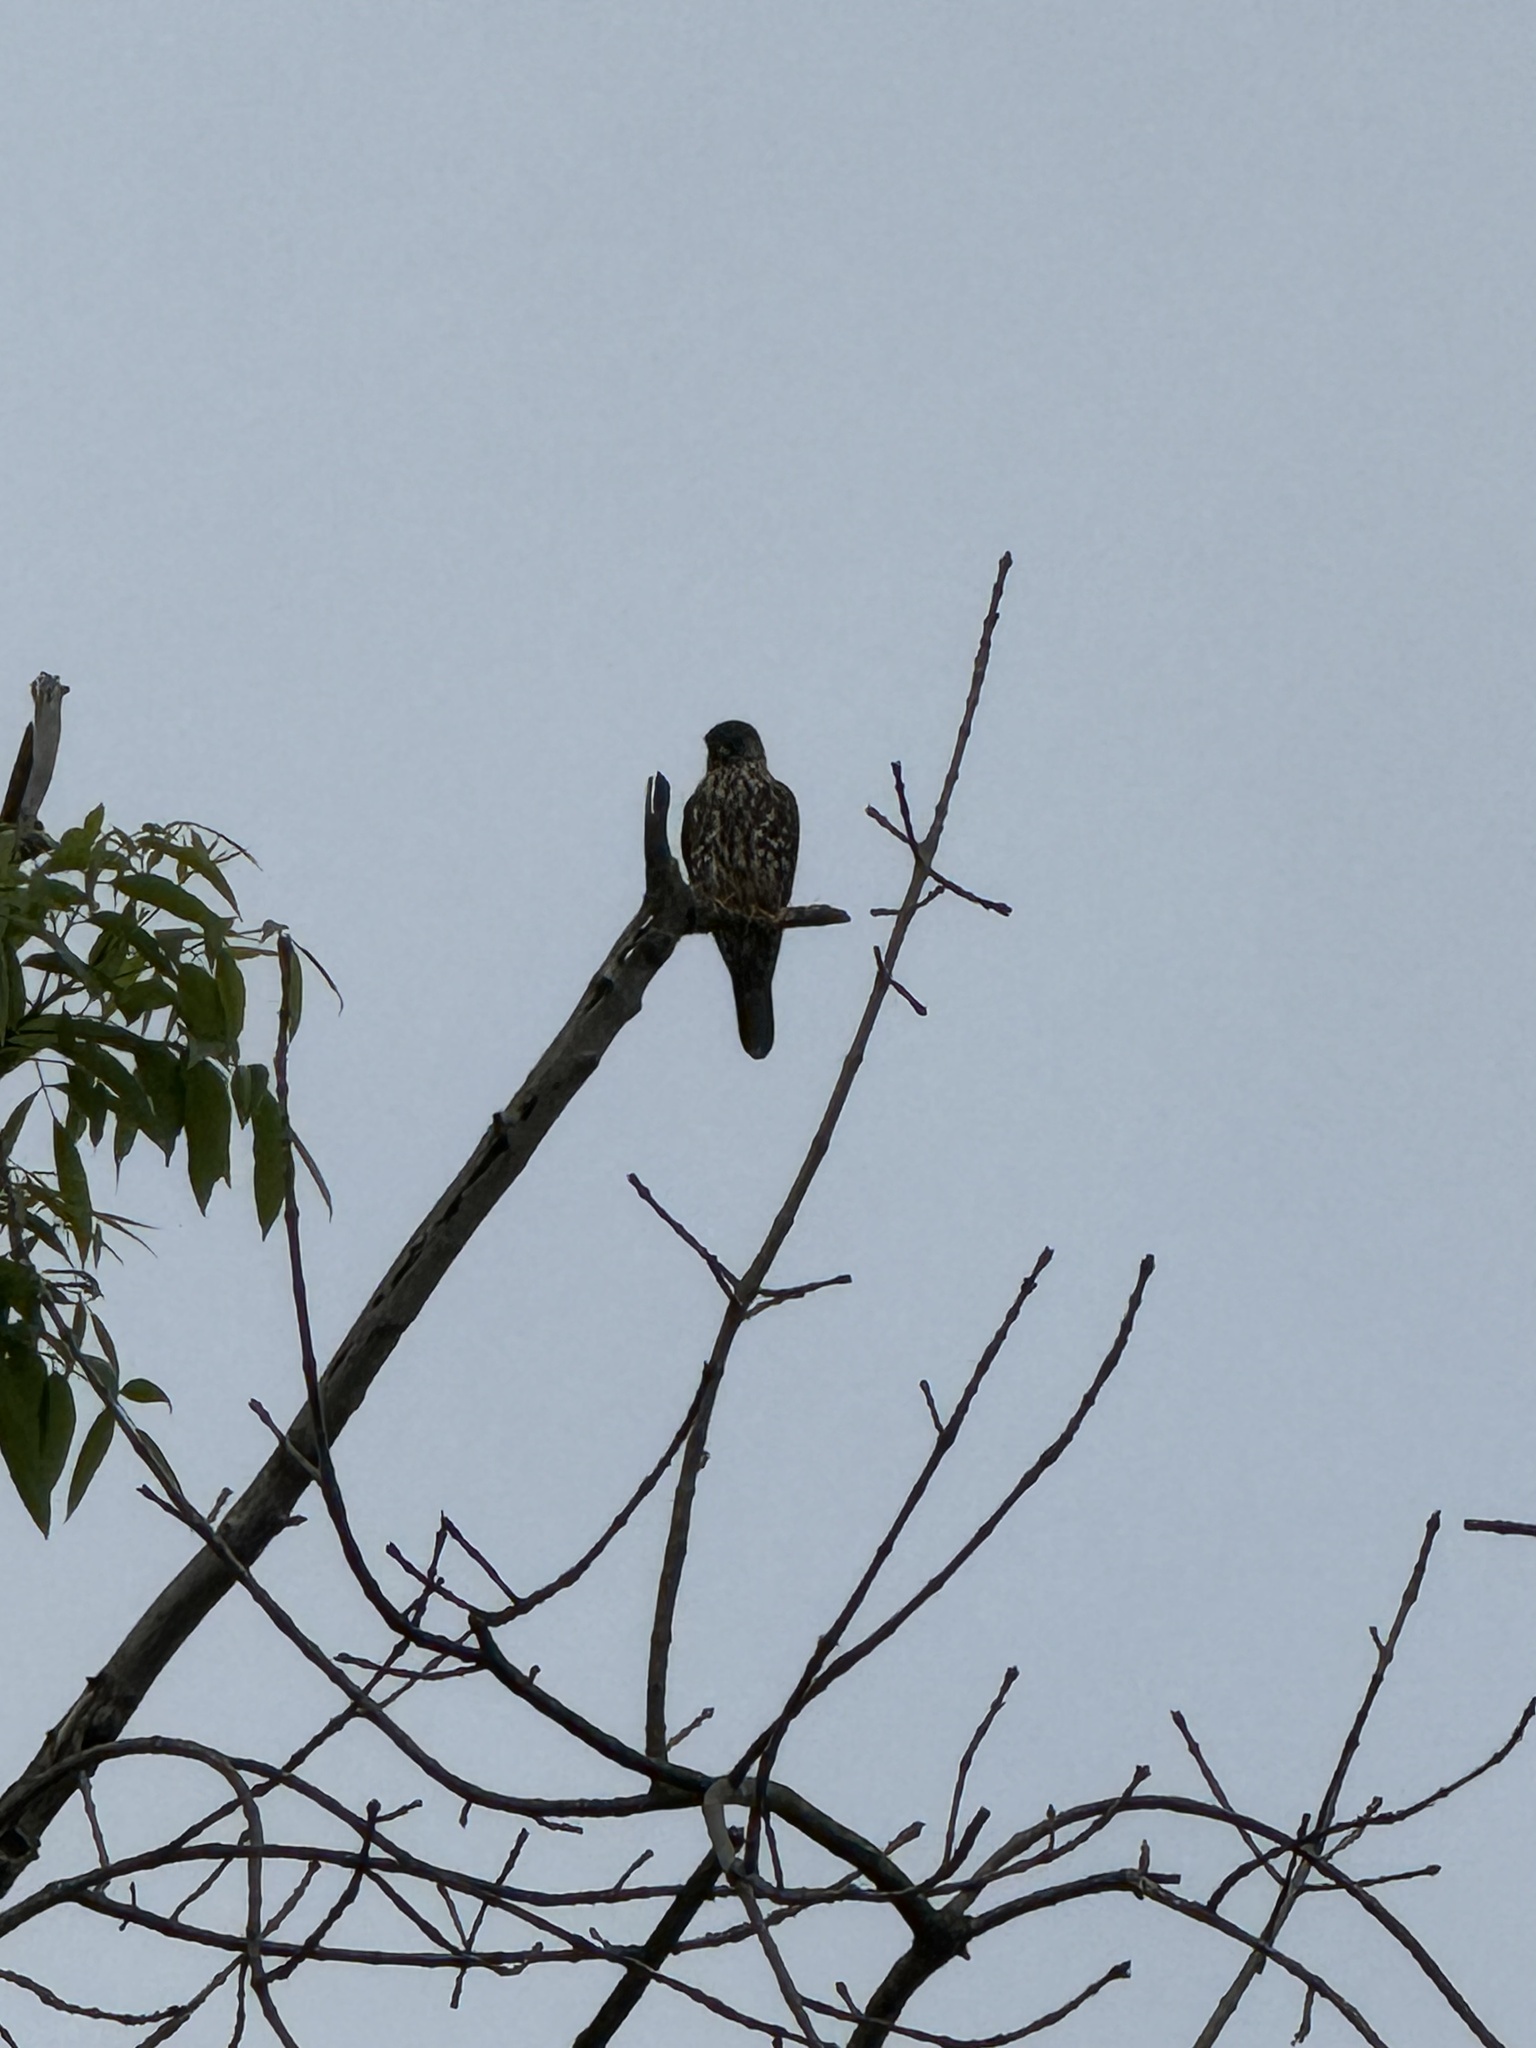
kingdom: Animalia
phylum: Chordata
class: Aves
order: Falconiformes
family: Falconidae
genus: Falco
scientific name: Falco columbarius
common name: Merlin
